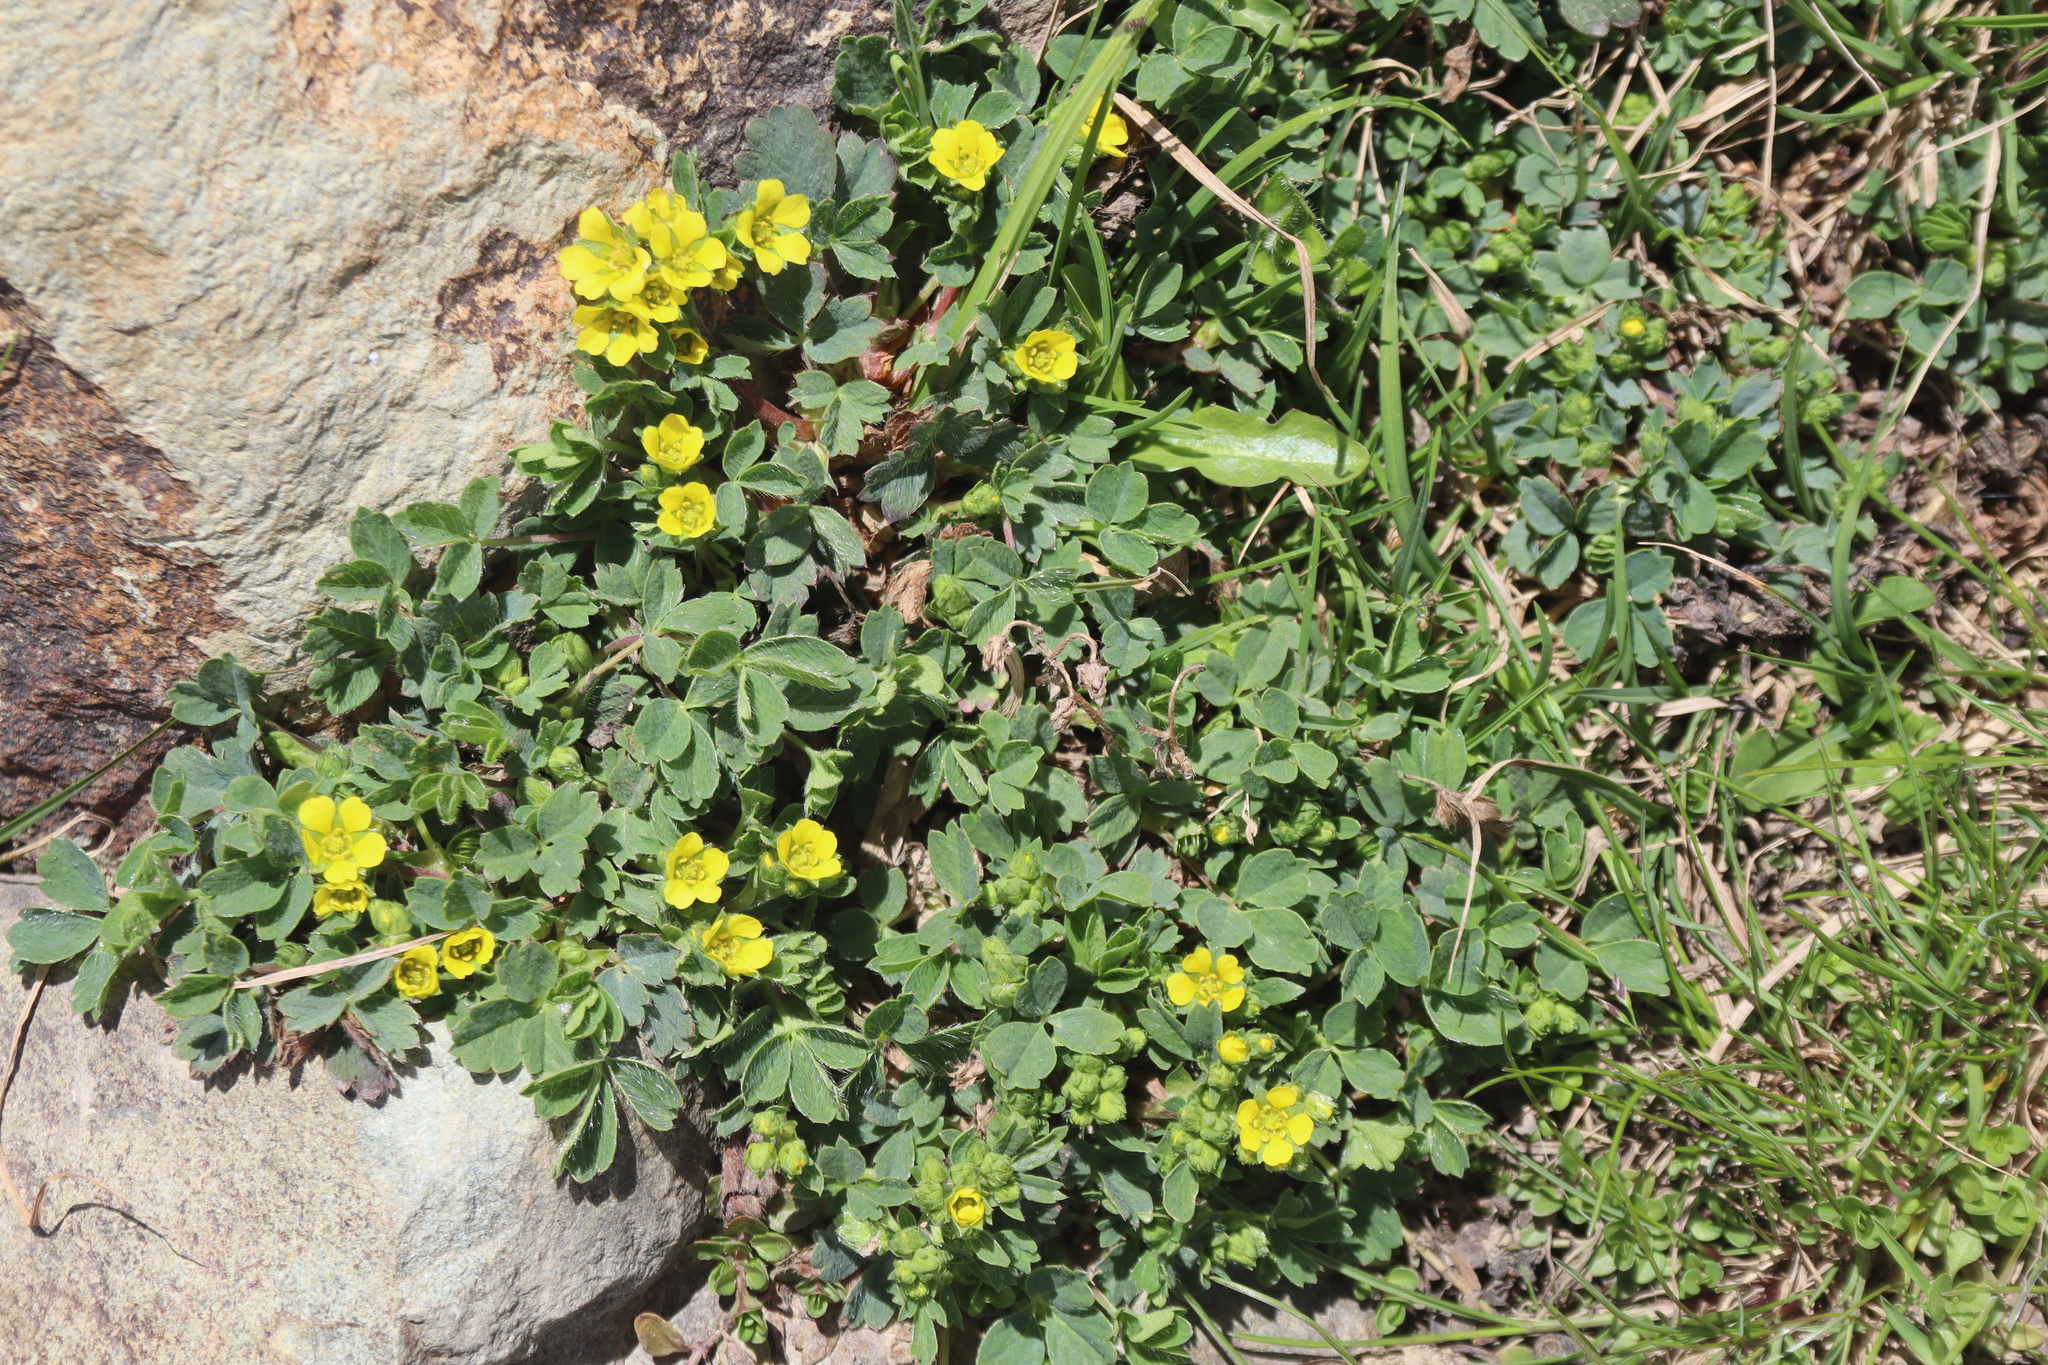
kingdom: Plantae
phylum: Tracheophyta
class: Magnoliopsida
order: Rosales
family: Rosaceae
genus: Sibbaldia
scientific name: Sibbaldia cuneifolia
